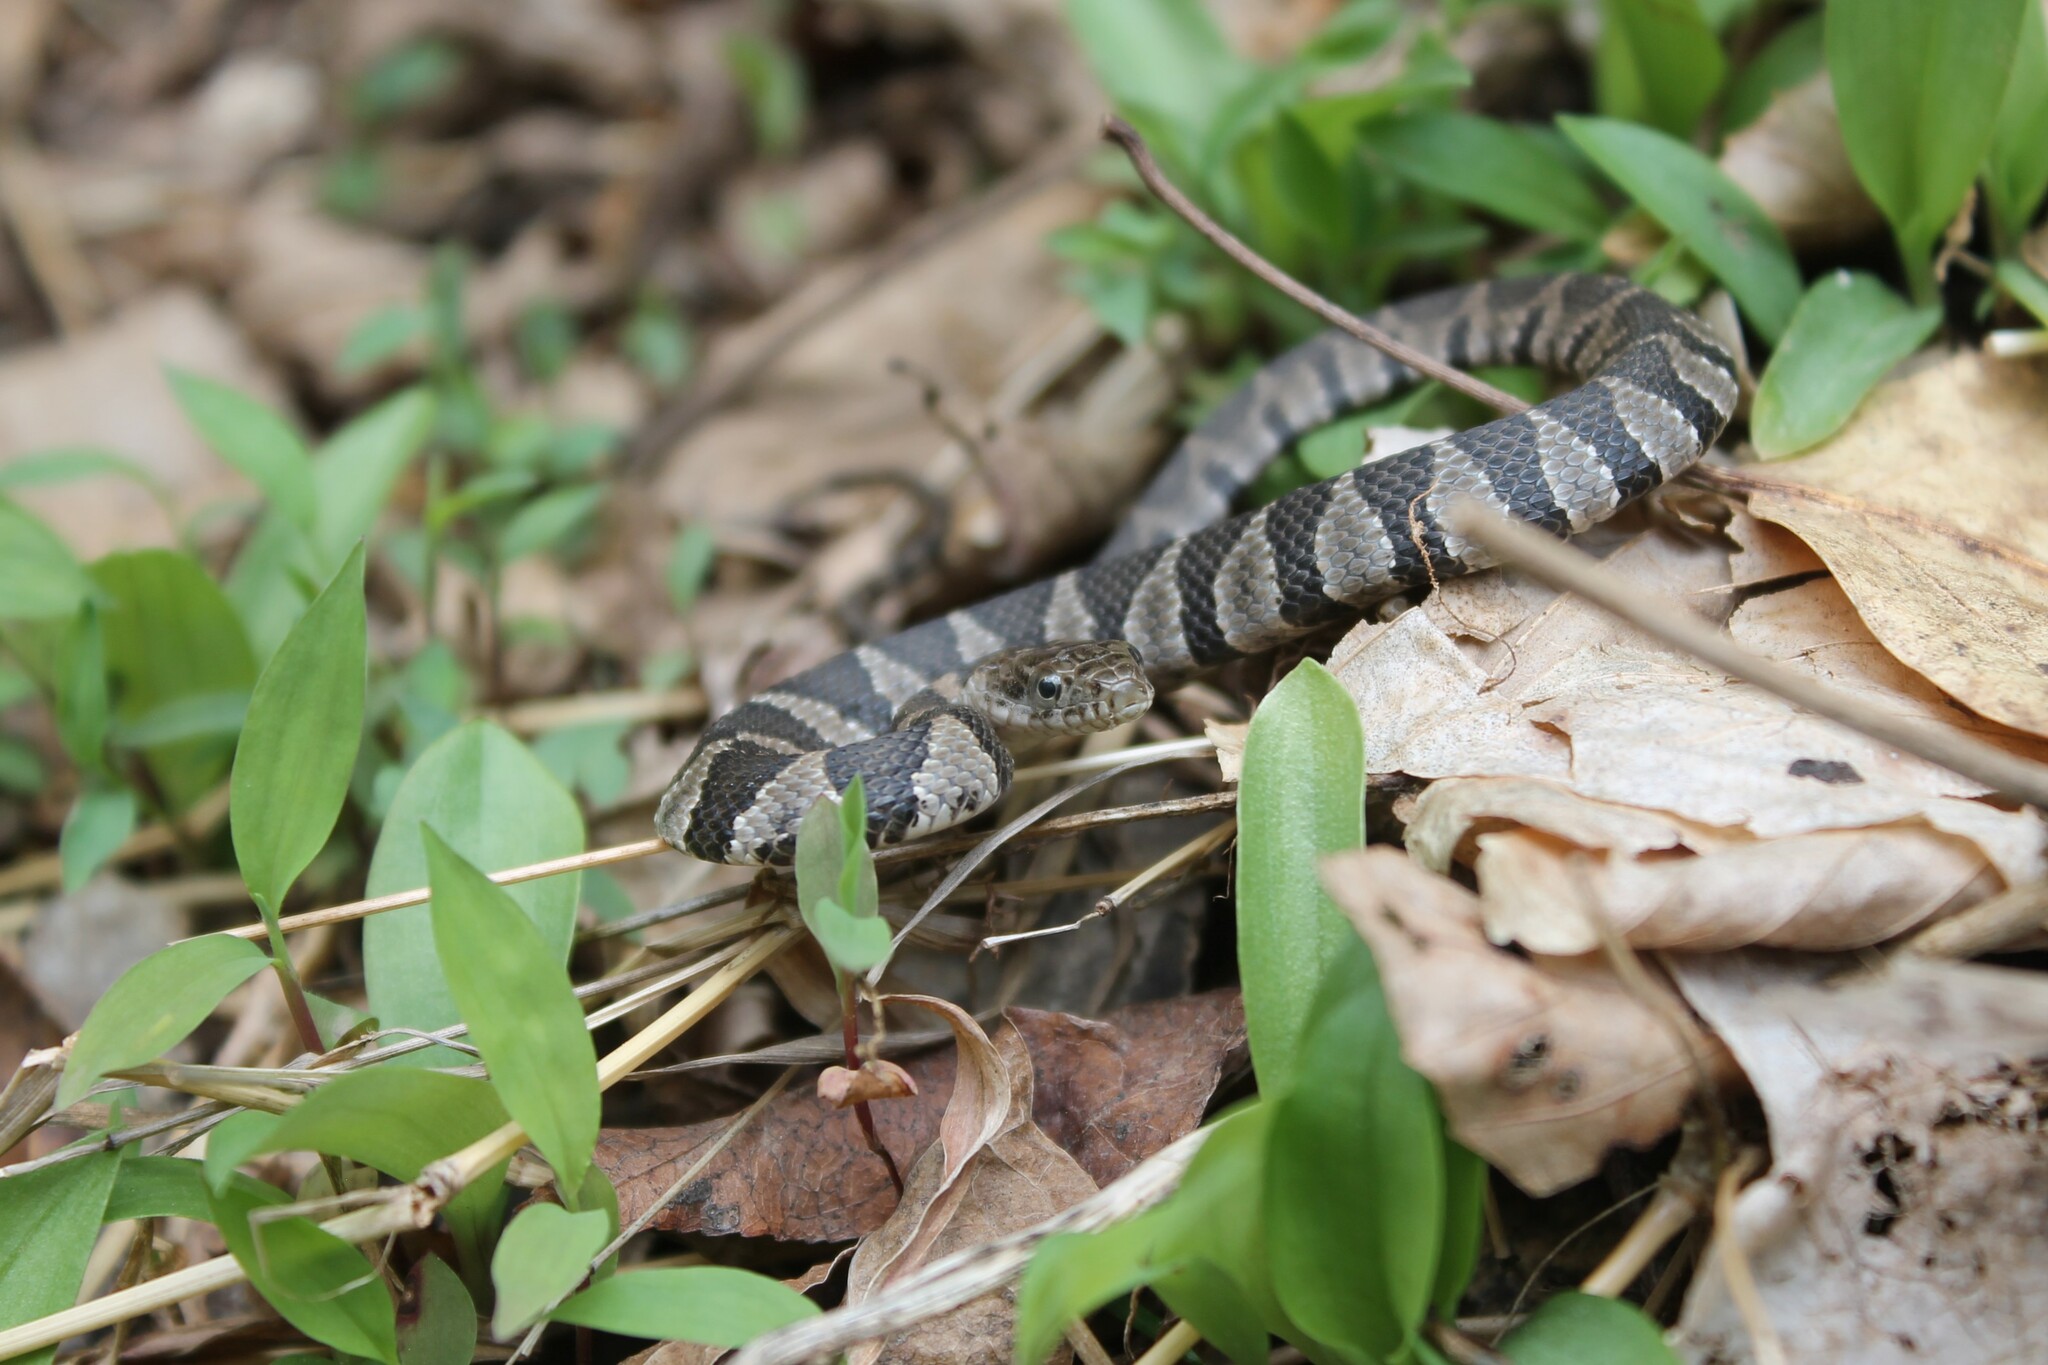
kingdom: Animalia
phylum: Chordata
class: Squamata
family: Colubridae
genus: Nerodia
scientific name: Nerodia sipedon
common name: Northern water snake
